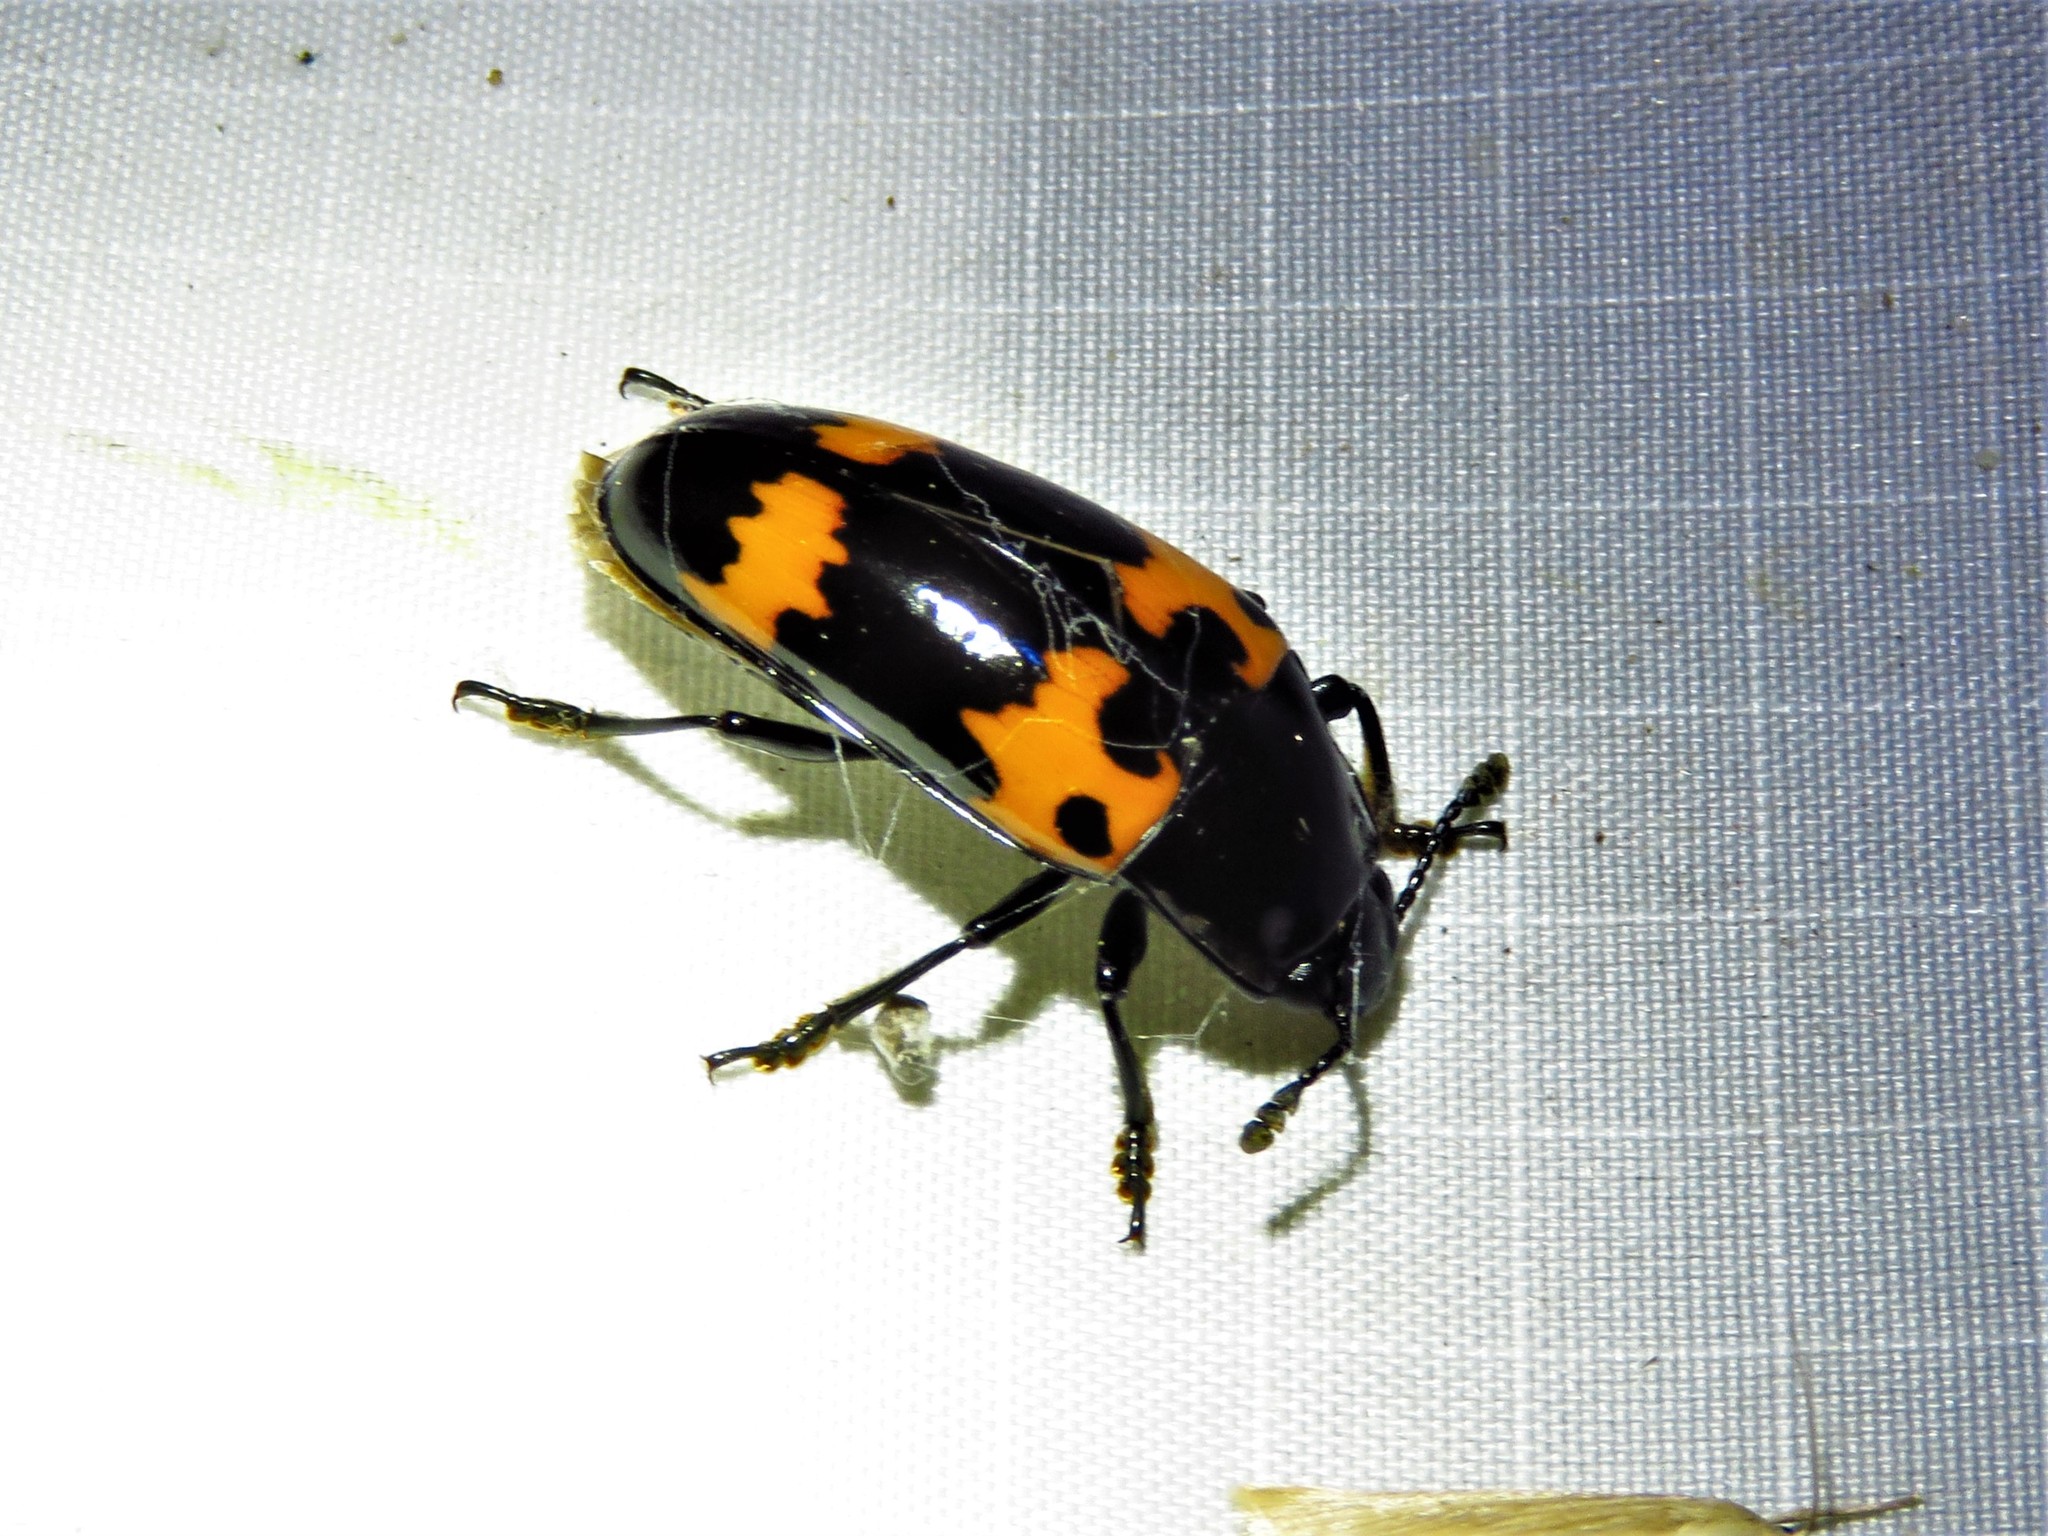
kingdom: Animalia
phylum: Arthropoda
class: Insecta
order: Coleoptera
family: Erotylidae
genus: Megalodacne
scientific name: Megalodacne heros
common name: Pleasing fungus beetle
